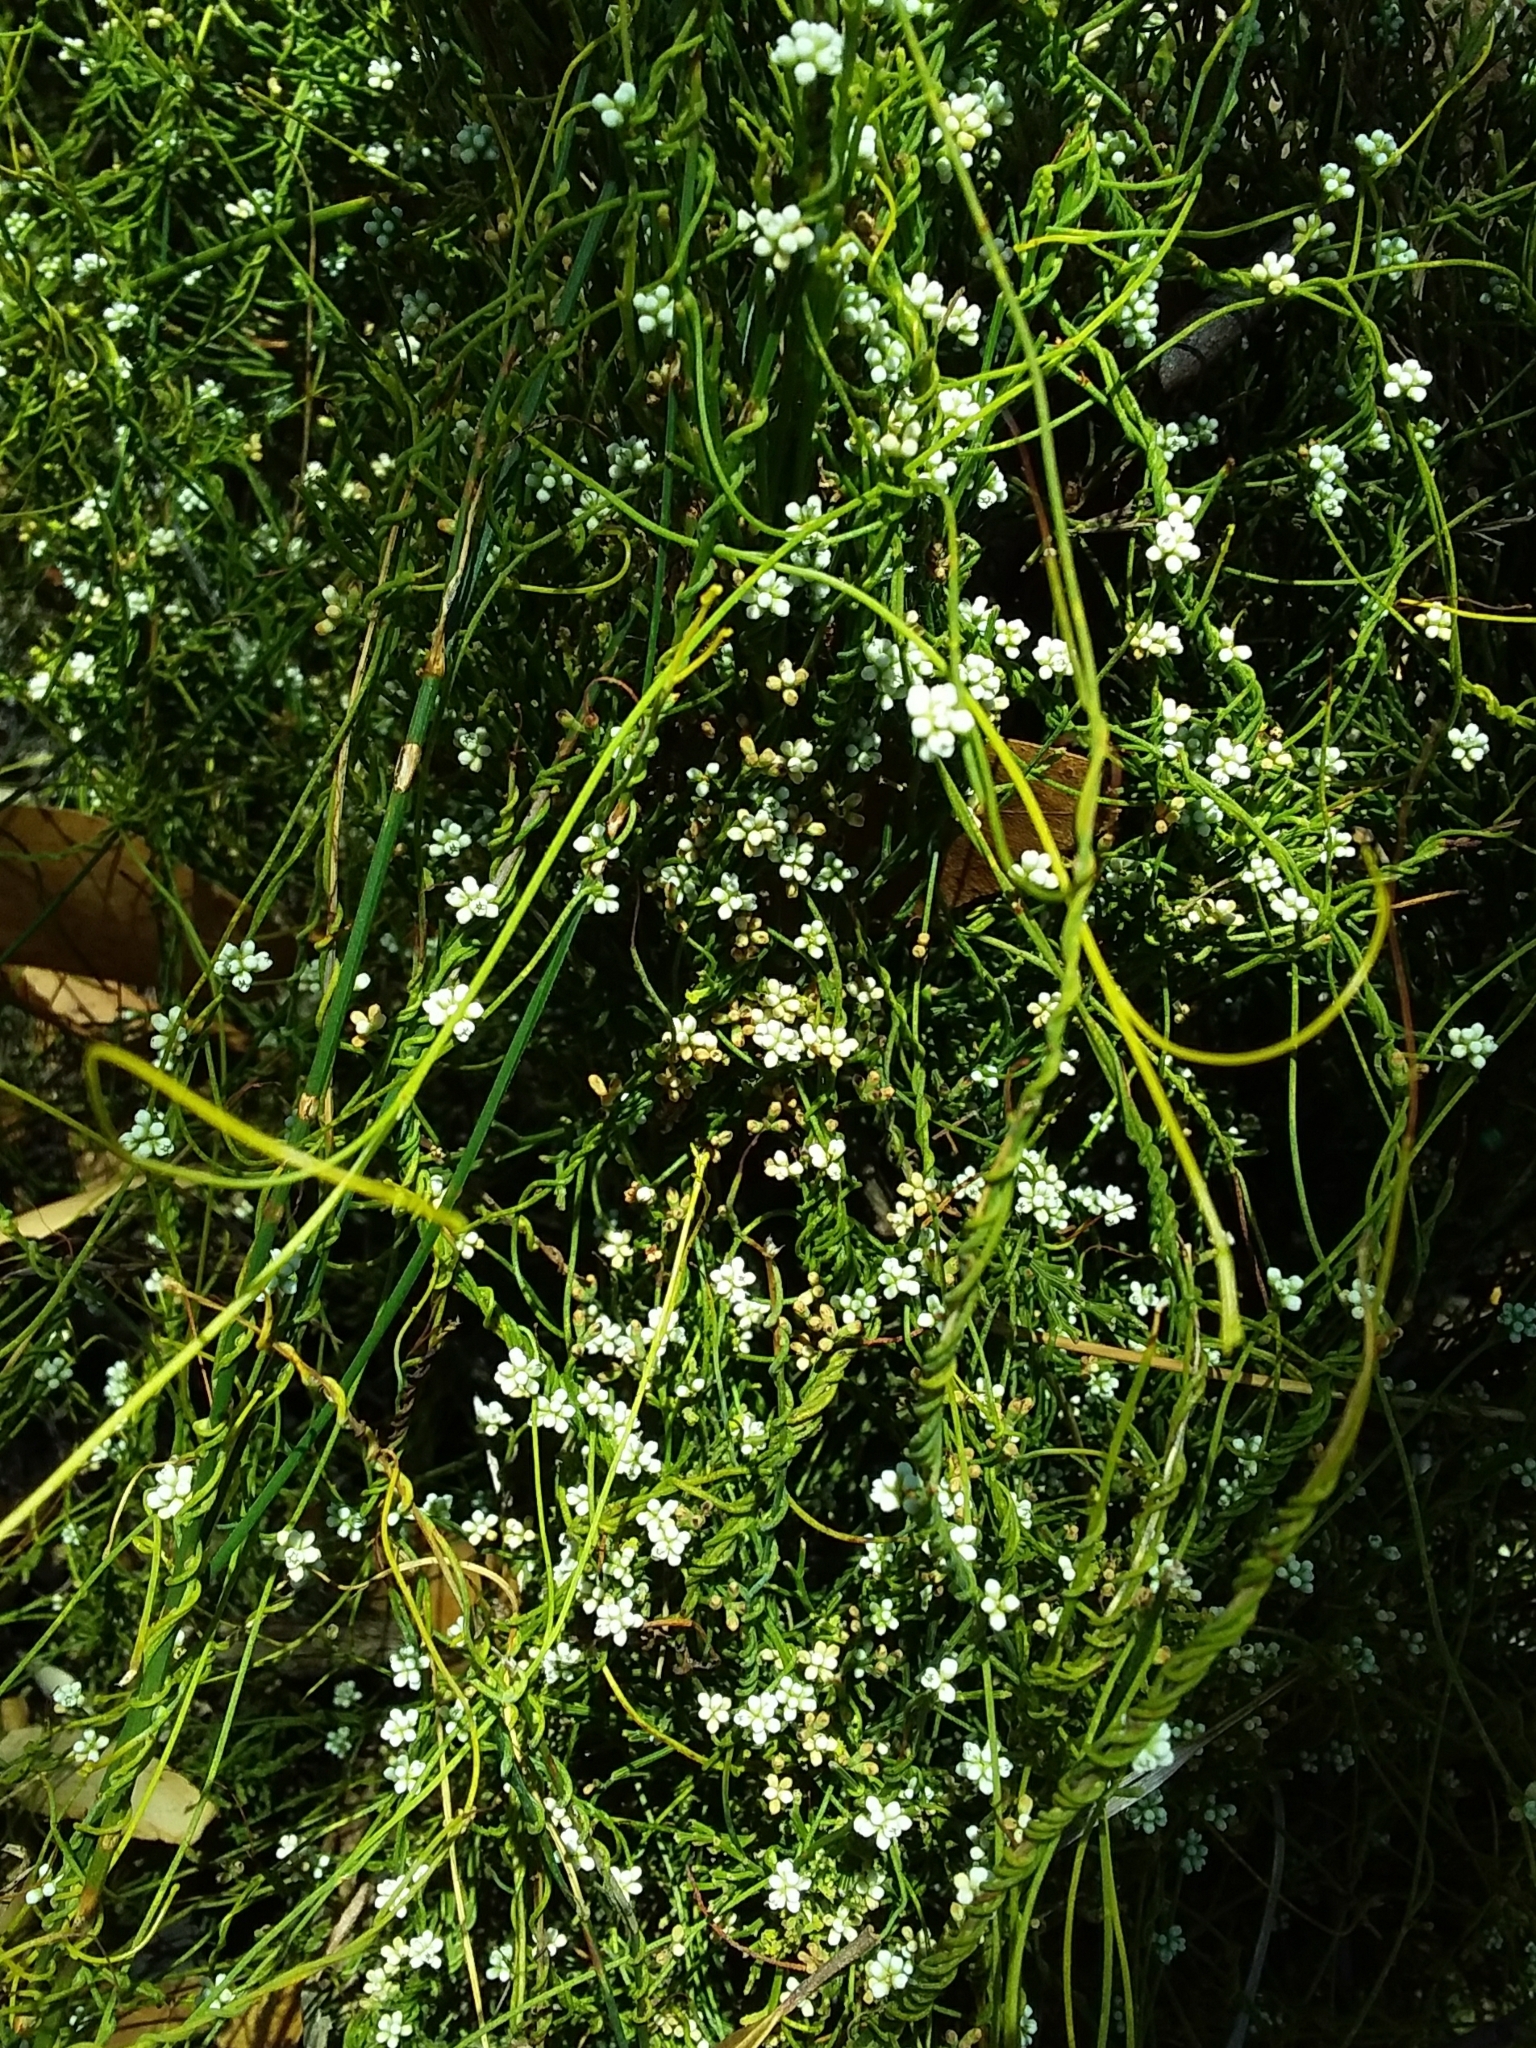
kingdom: Plantae
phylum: Tracheophyta
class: Magnoliopsida
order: Laurales
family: Lauraceae
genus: Cassytha
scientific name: Cassytha glabella
